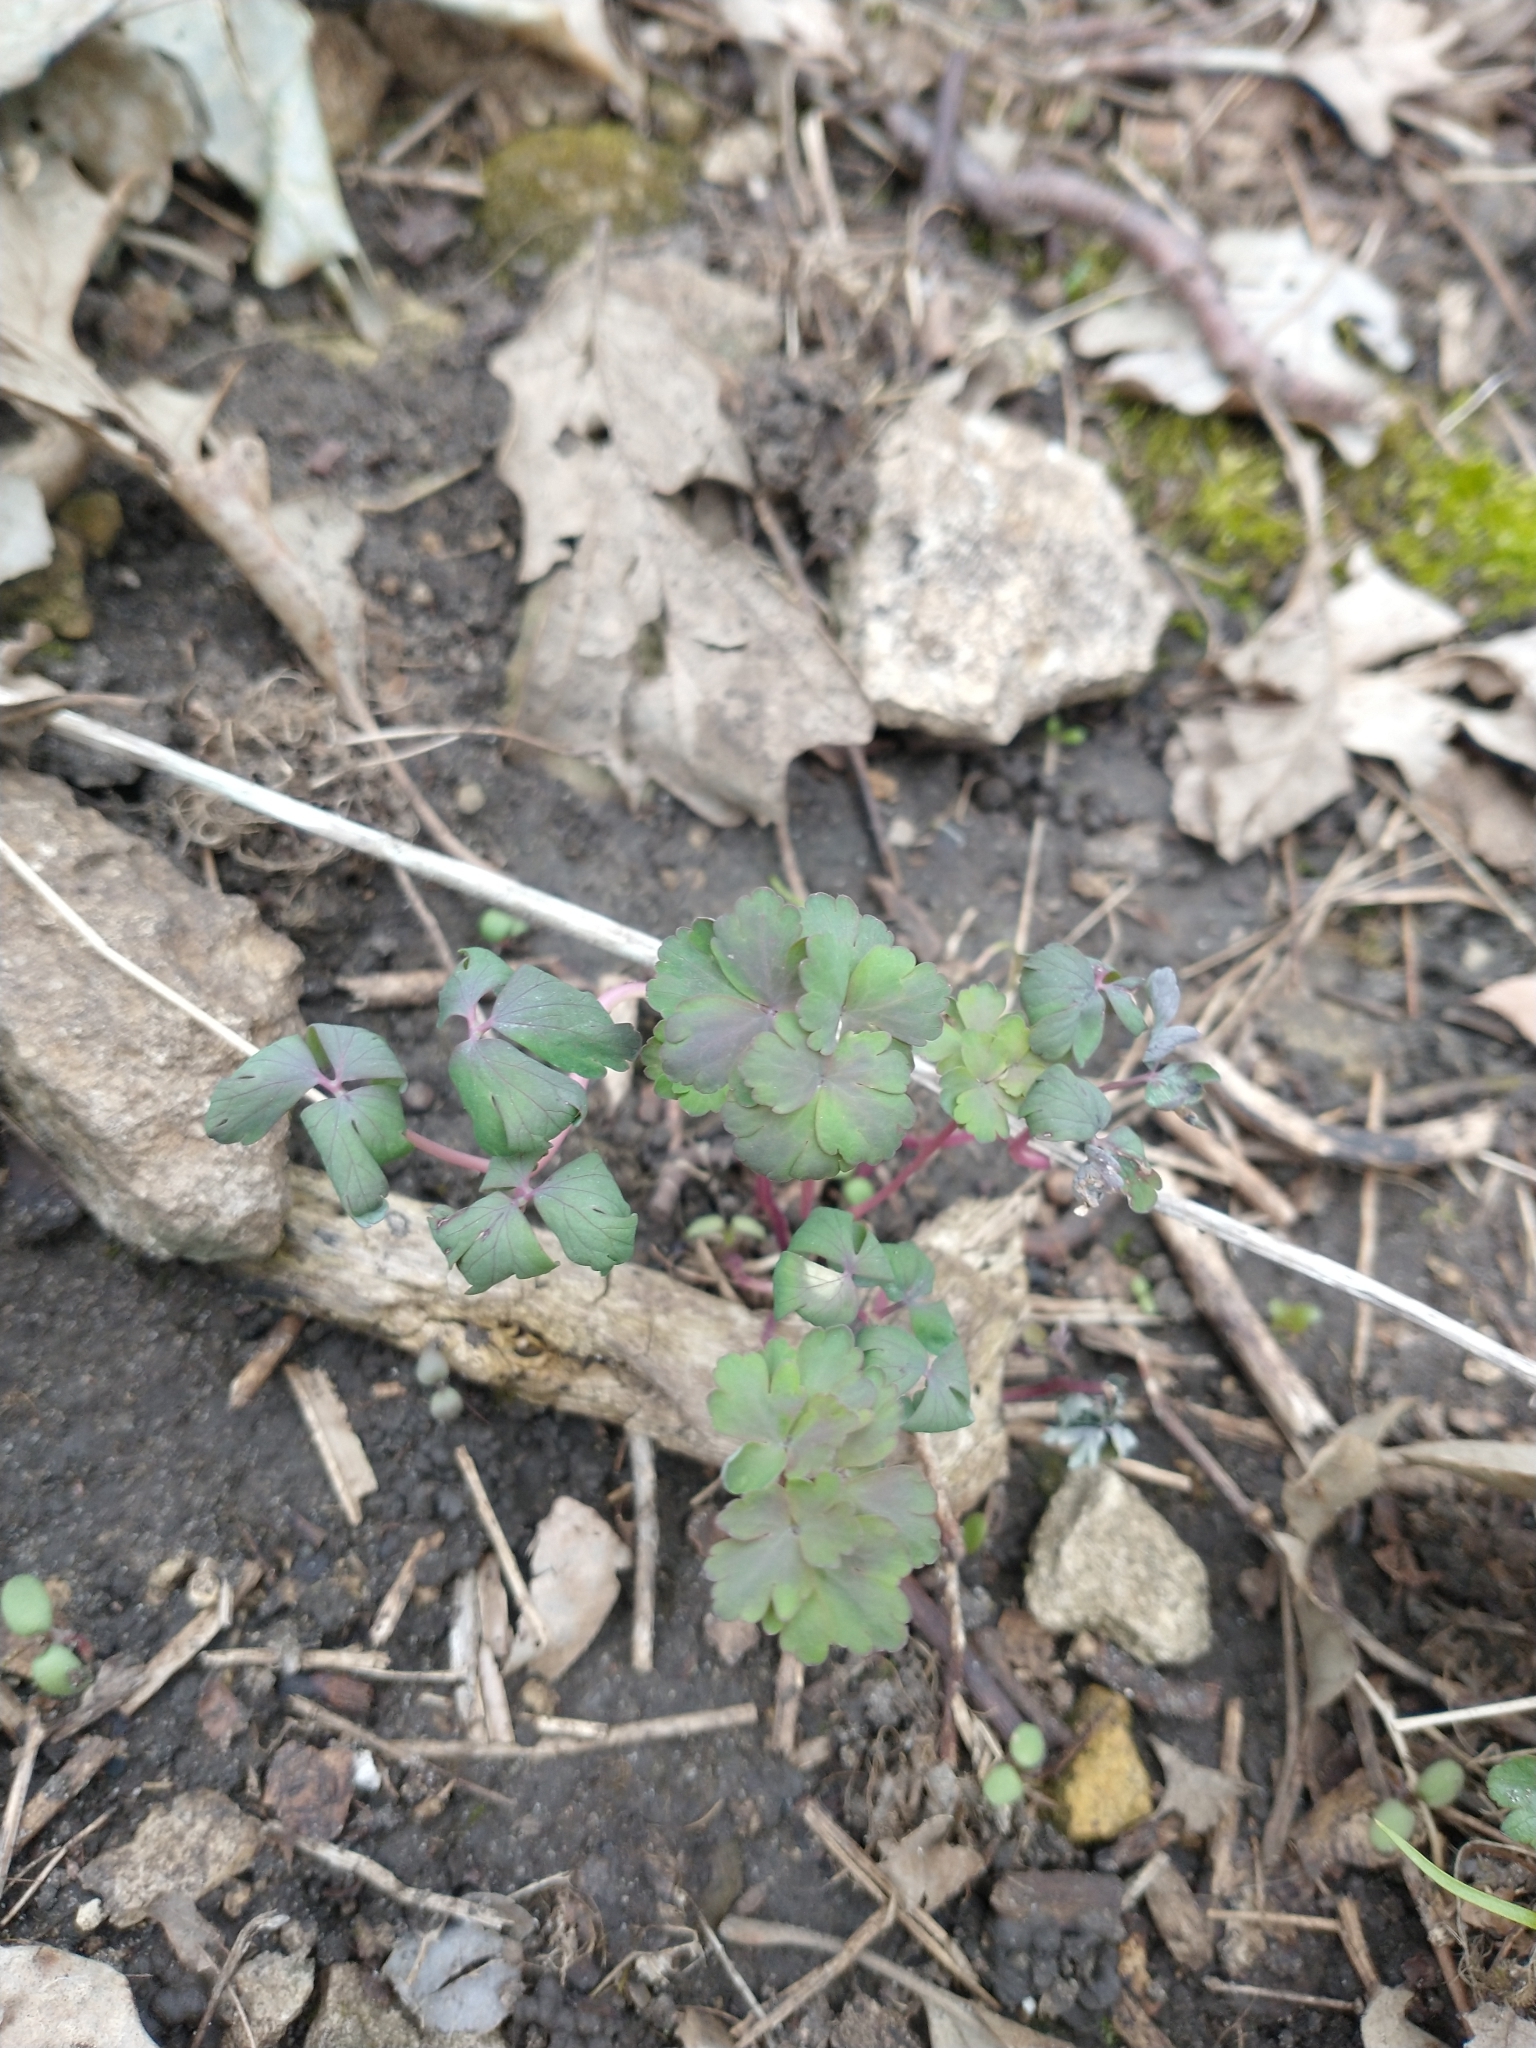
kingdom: Plantae
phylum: Tracheophyta
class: Magnoliopsida
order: Ranunculales
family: Ranunculaceae
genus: Aquilegia
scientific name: Aquilegia canadensis
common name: American columbine
